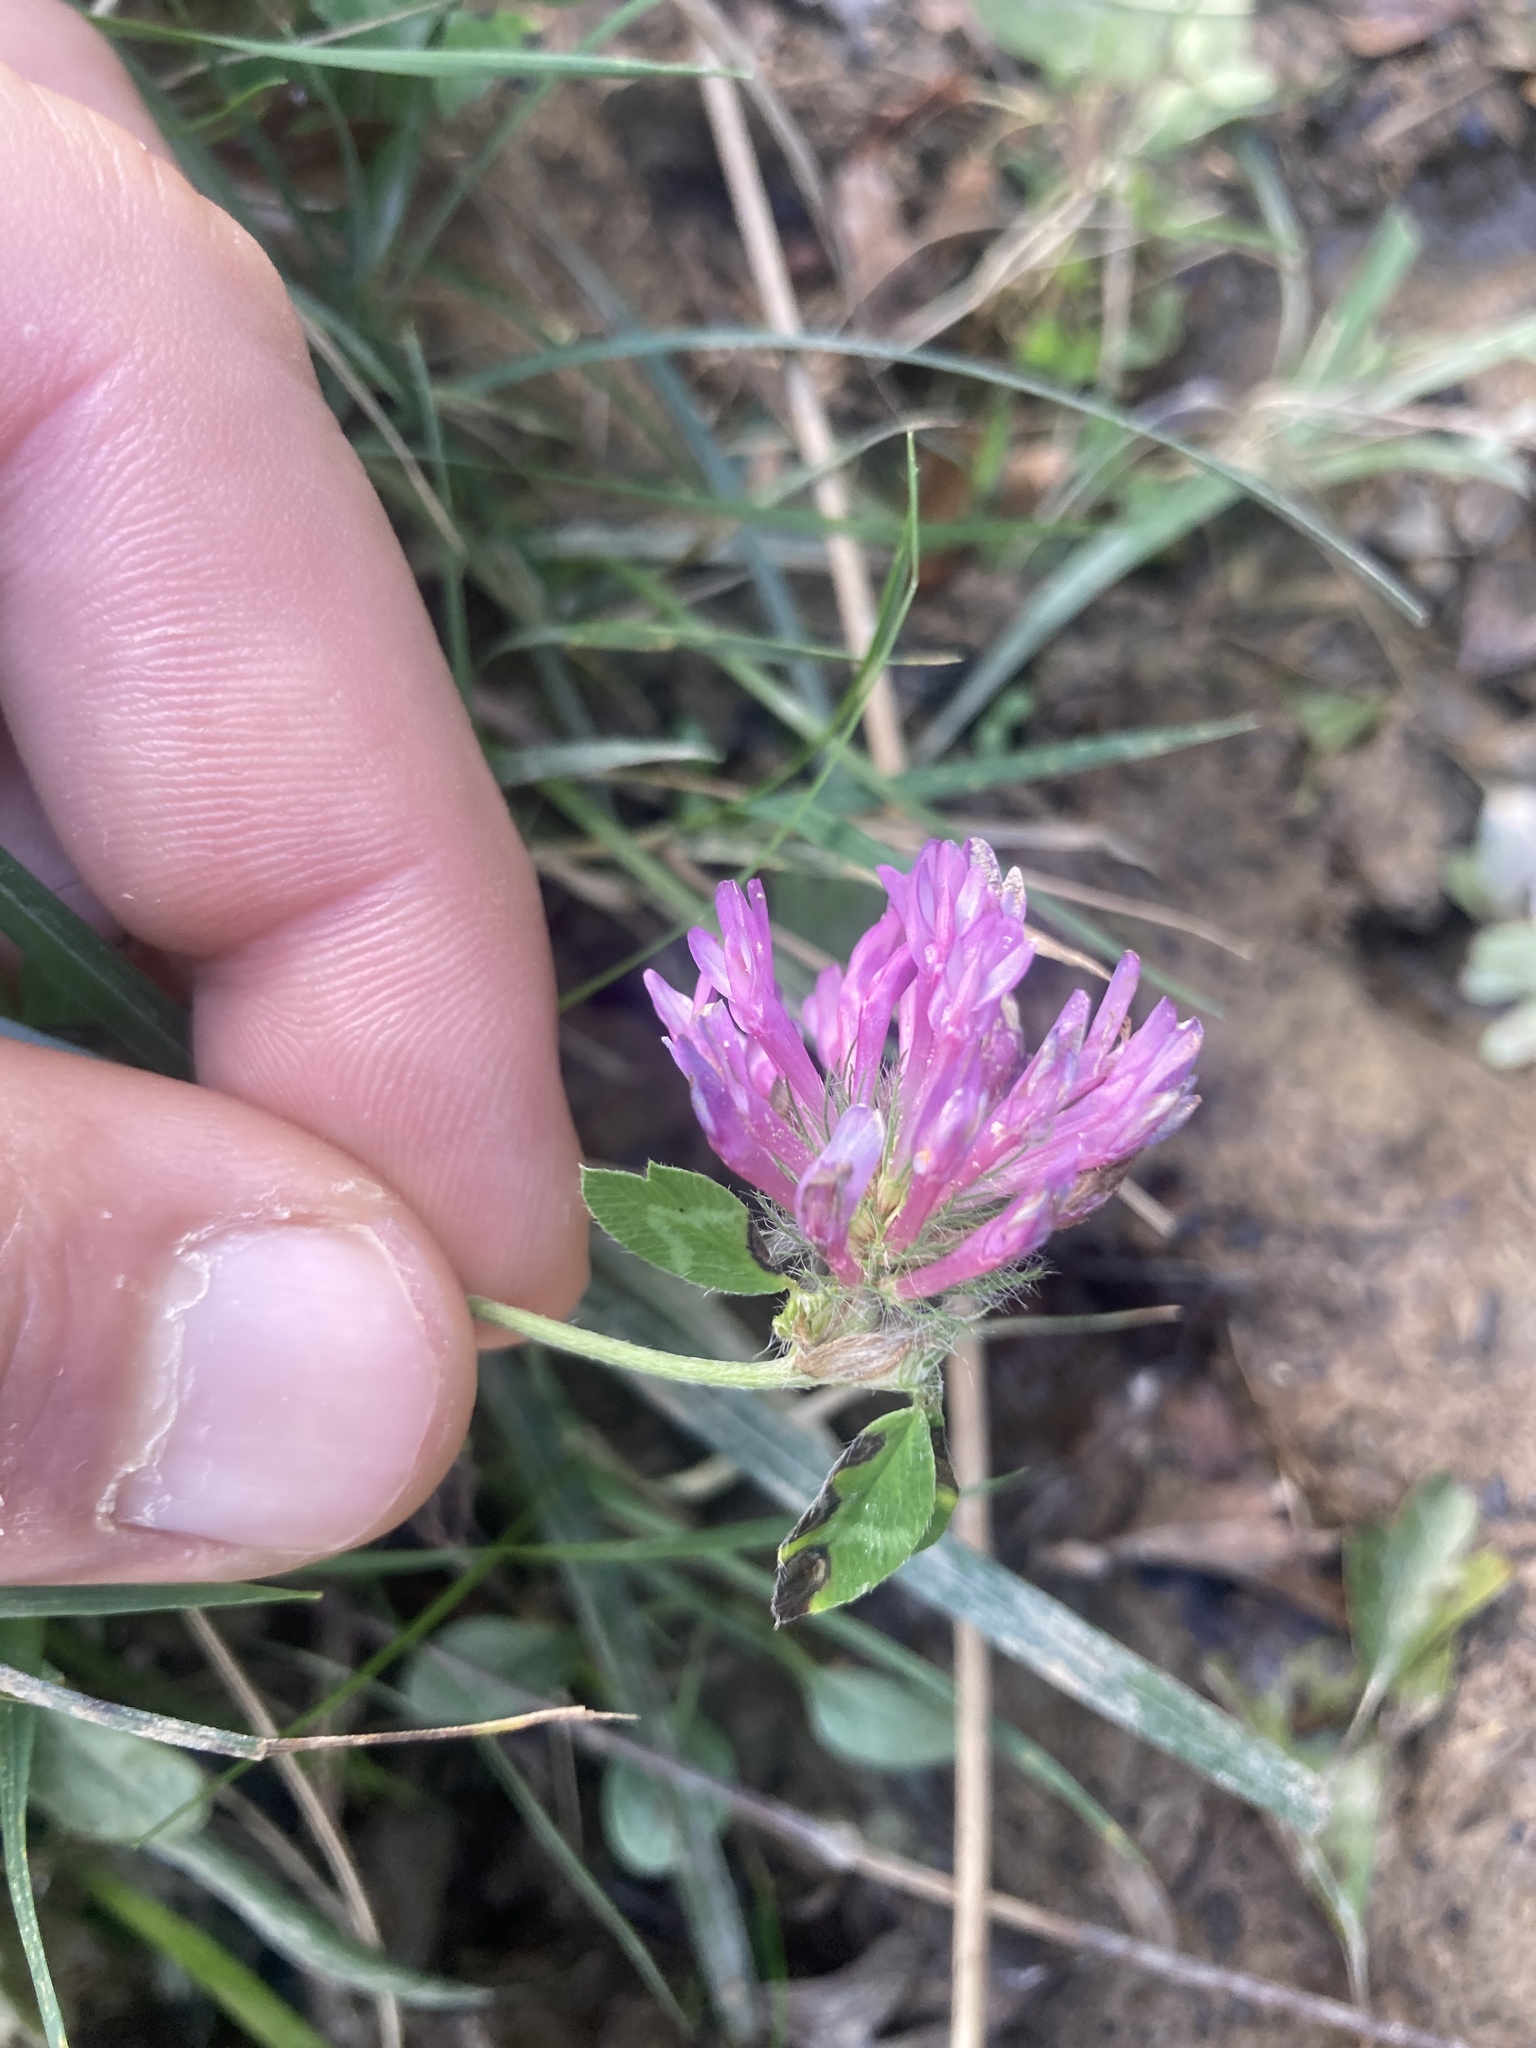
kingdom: Plantae
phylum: Tracheophyta
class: Magnoliopsida
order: Fabales
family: Fabaceae
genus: Trifolium
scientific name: Trifolium pratense
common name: Red clover
